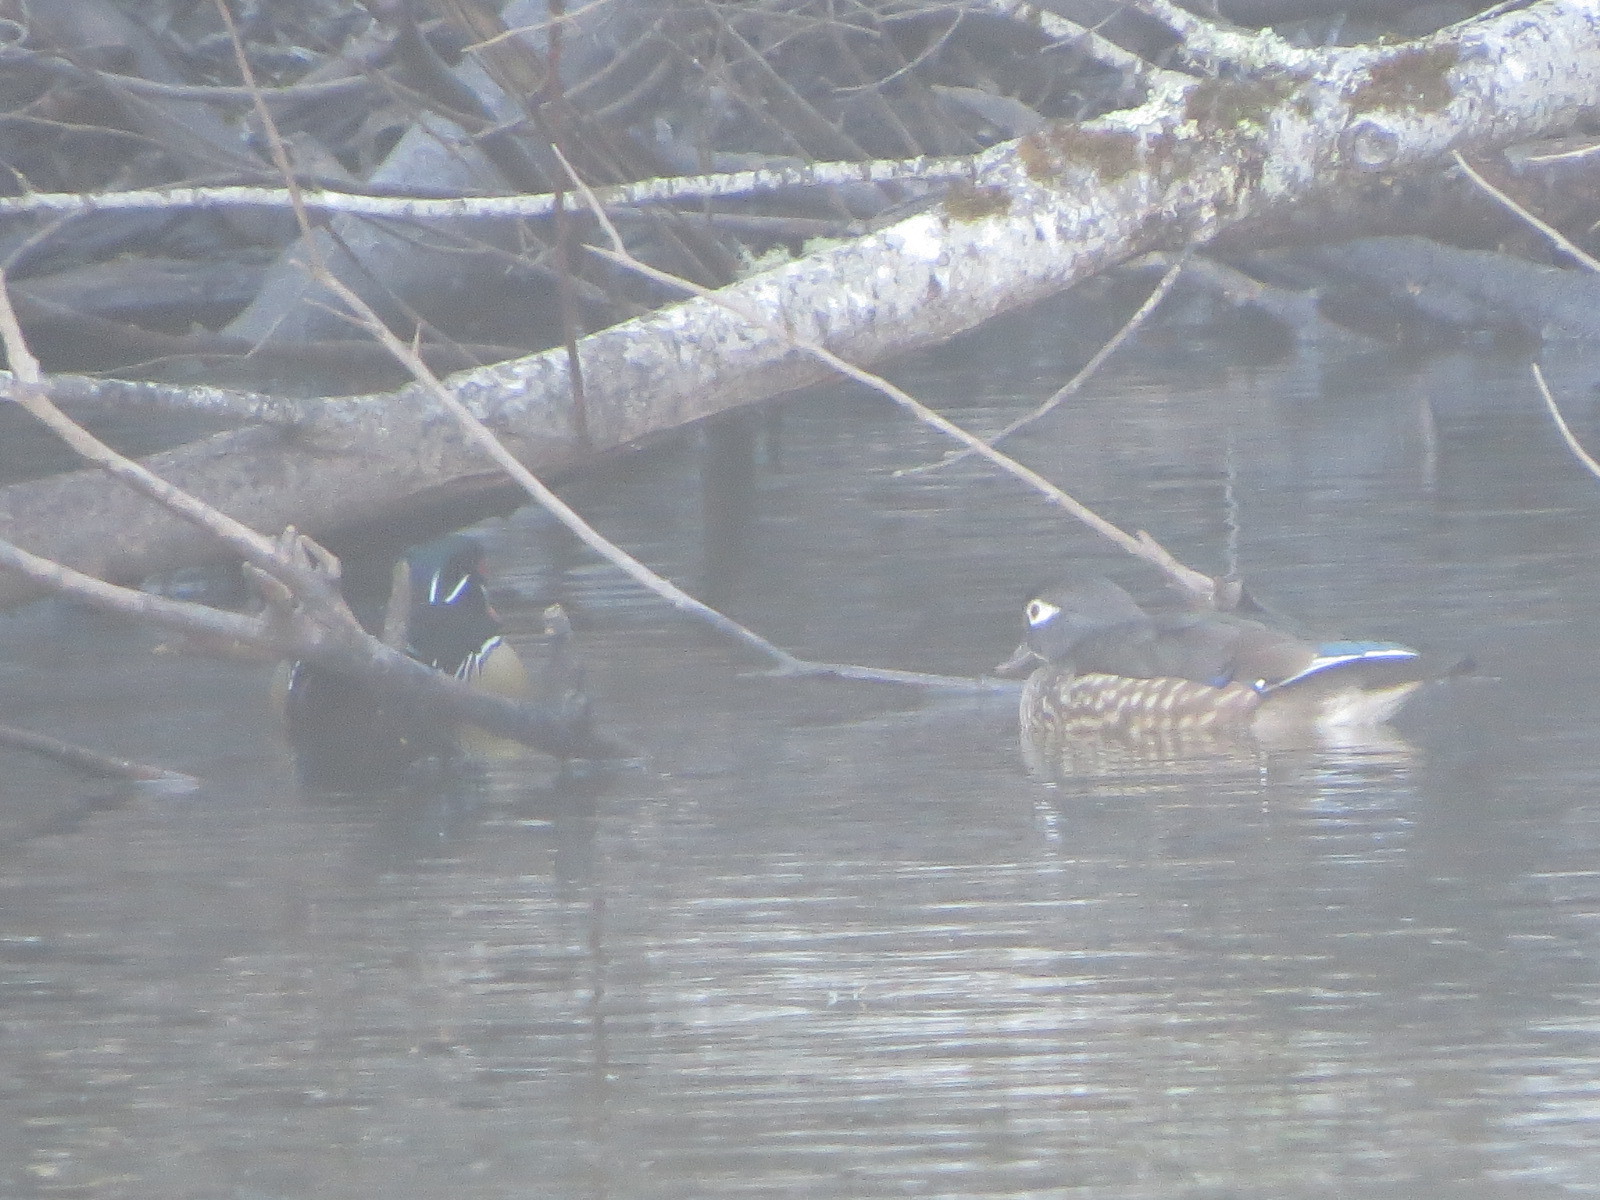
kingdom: Animalia
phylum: Chordata
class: Aves
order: Anseriformes
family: Anatidae
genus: Aix
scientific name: Aix sponsa
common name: Wood duck
